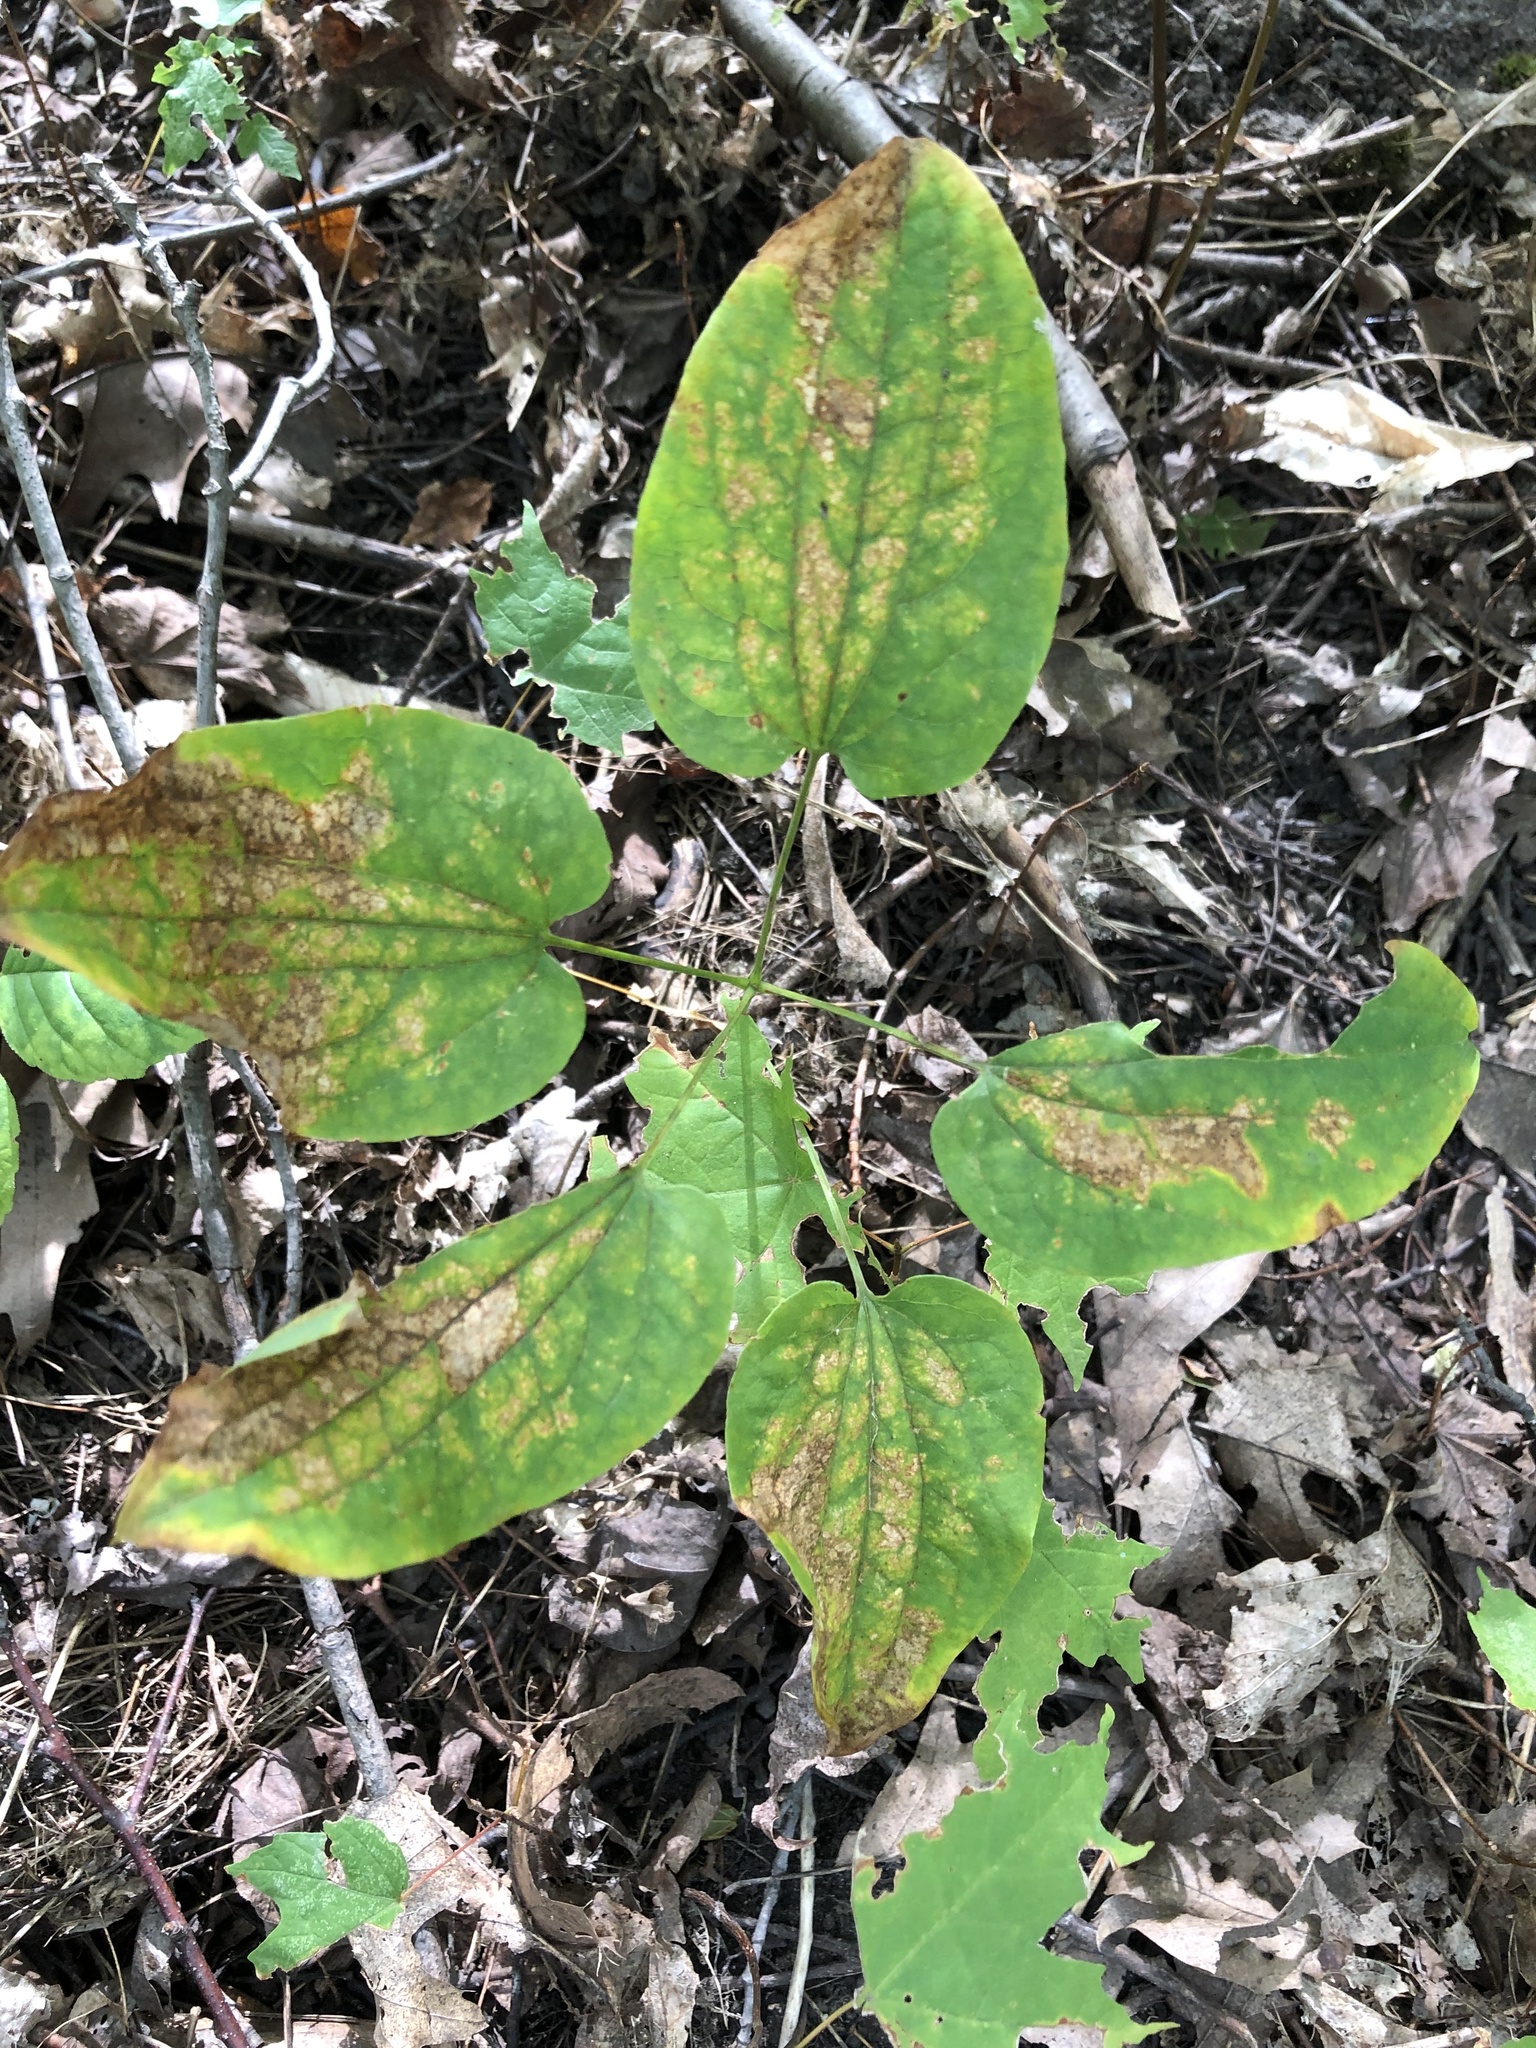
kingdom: Plantae
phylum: Tracheophyta
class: Liliopsida
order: Liliales
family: Smilacaceae
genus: Smilax
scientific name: Smilax herbacea
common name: Jacob's-ladder
